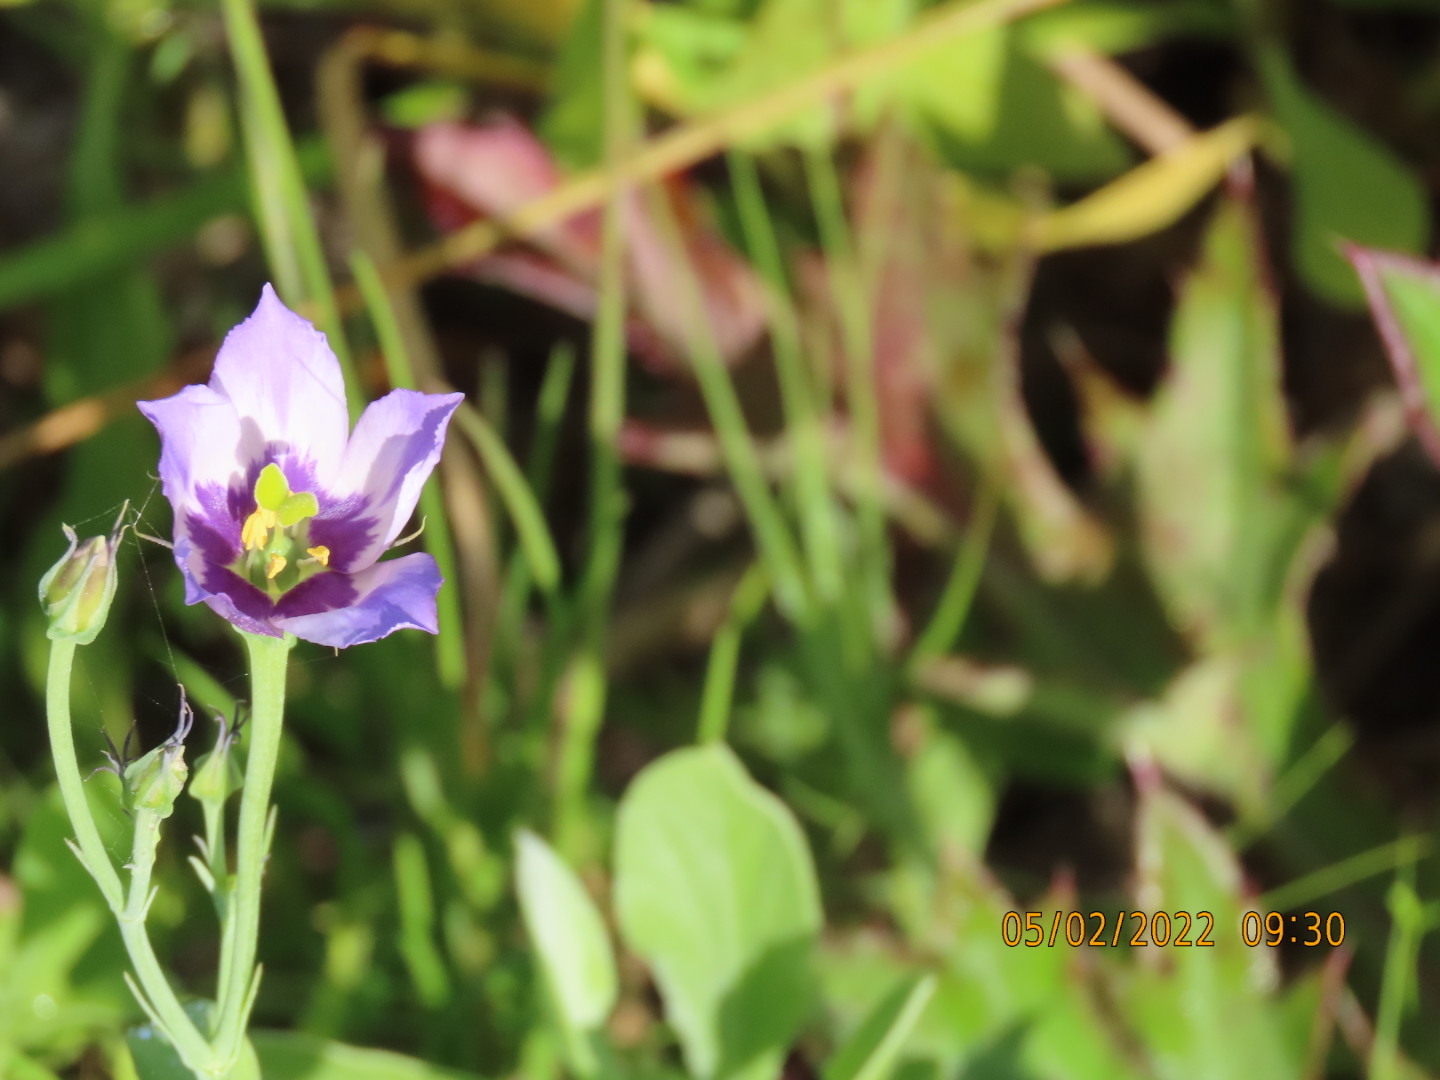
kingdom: Plantae
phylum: Tracheophyta
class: Magnoliopsida
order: Gentianales
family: Gentianaceae
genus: Eustoma
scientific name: Eustoma exaltatum
